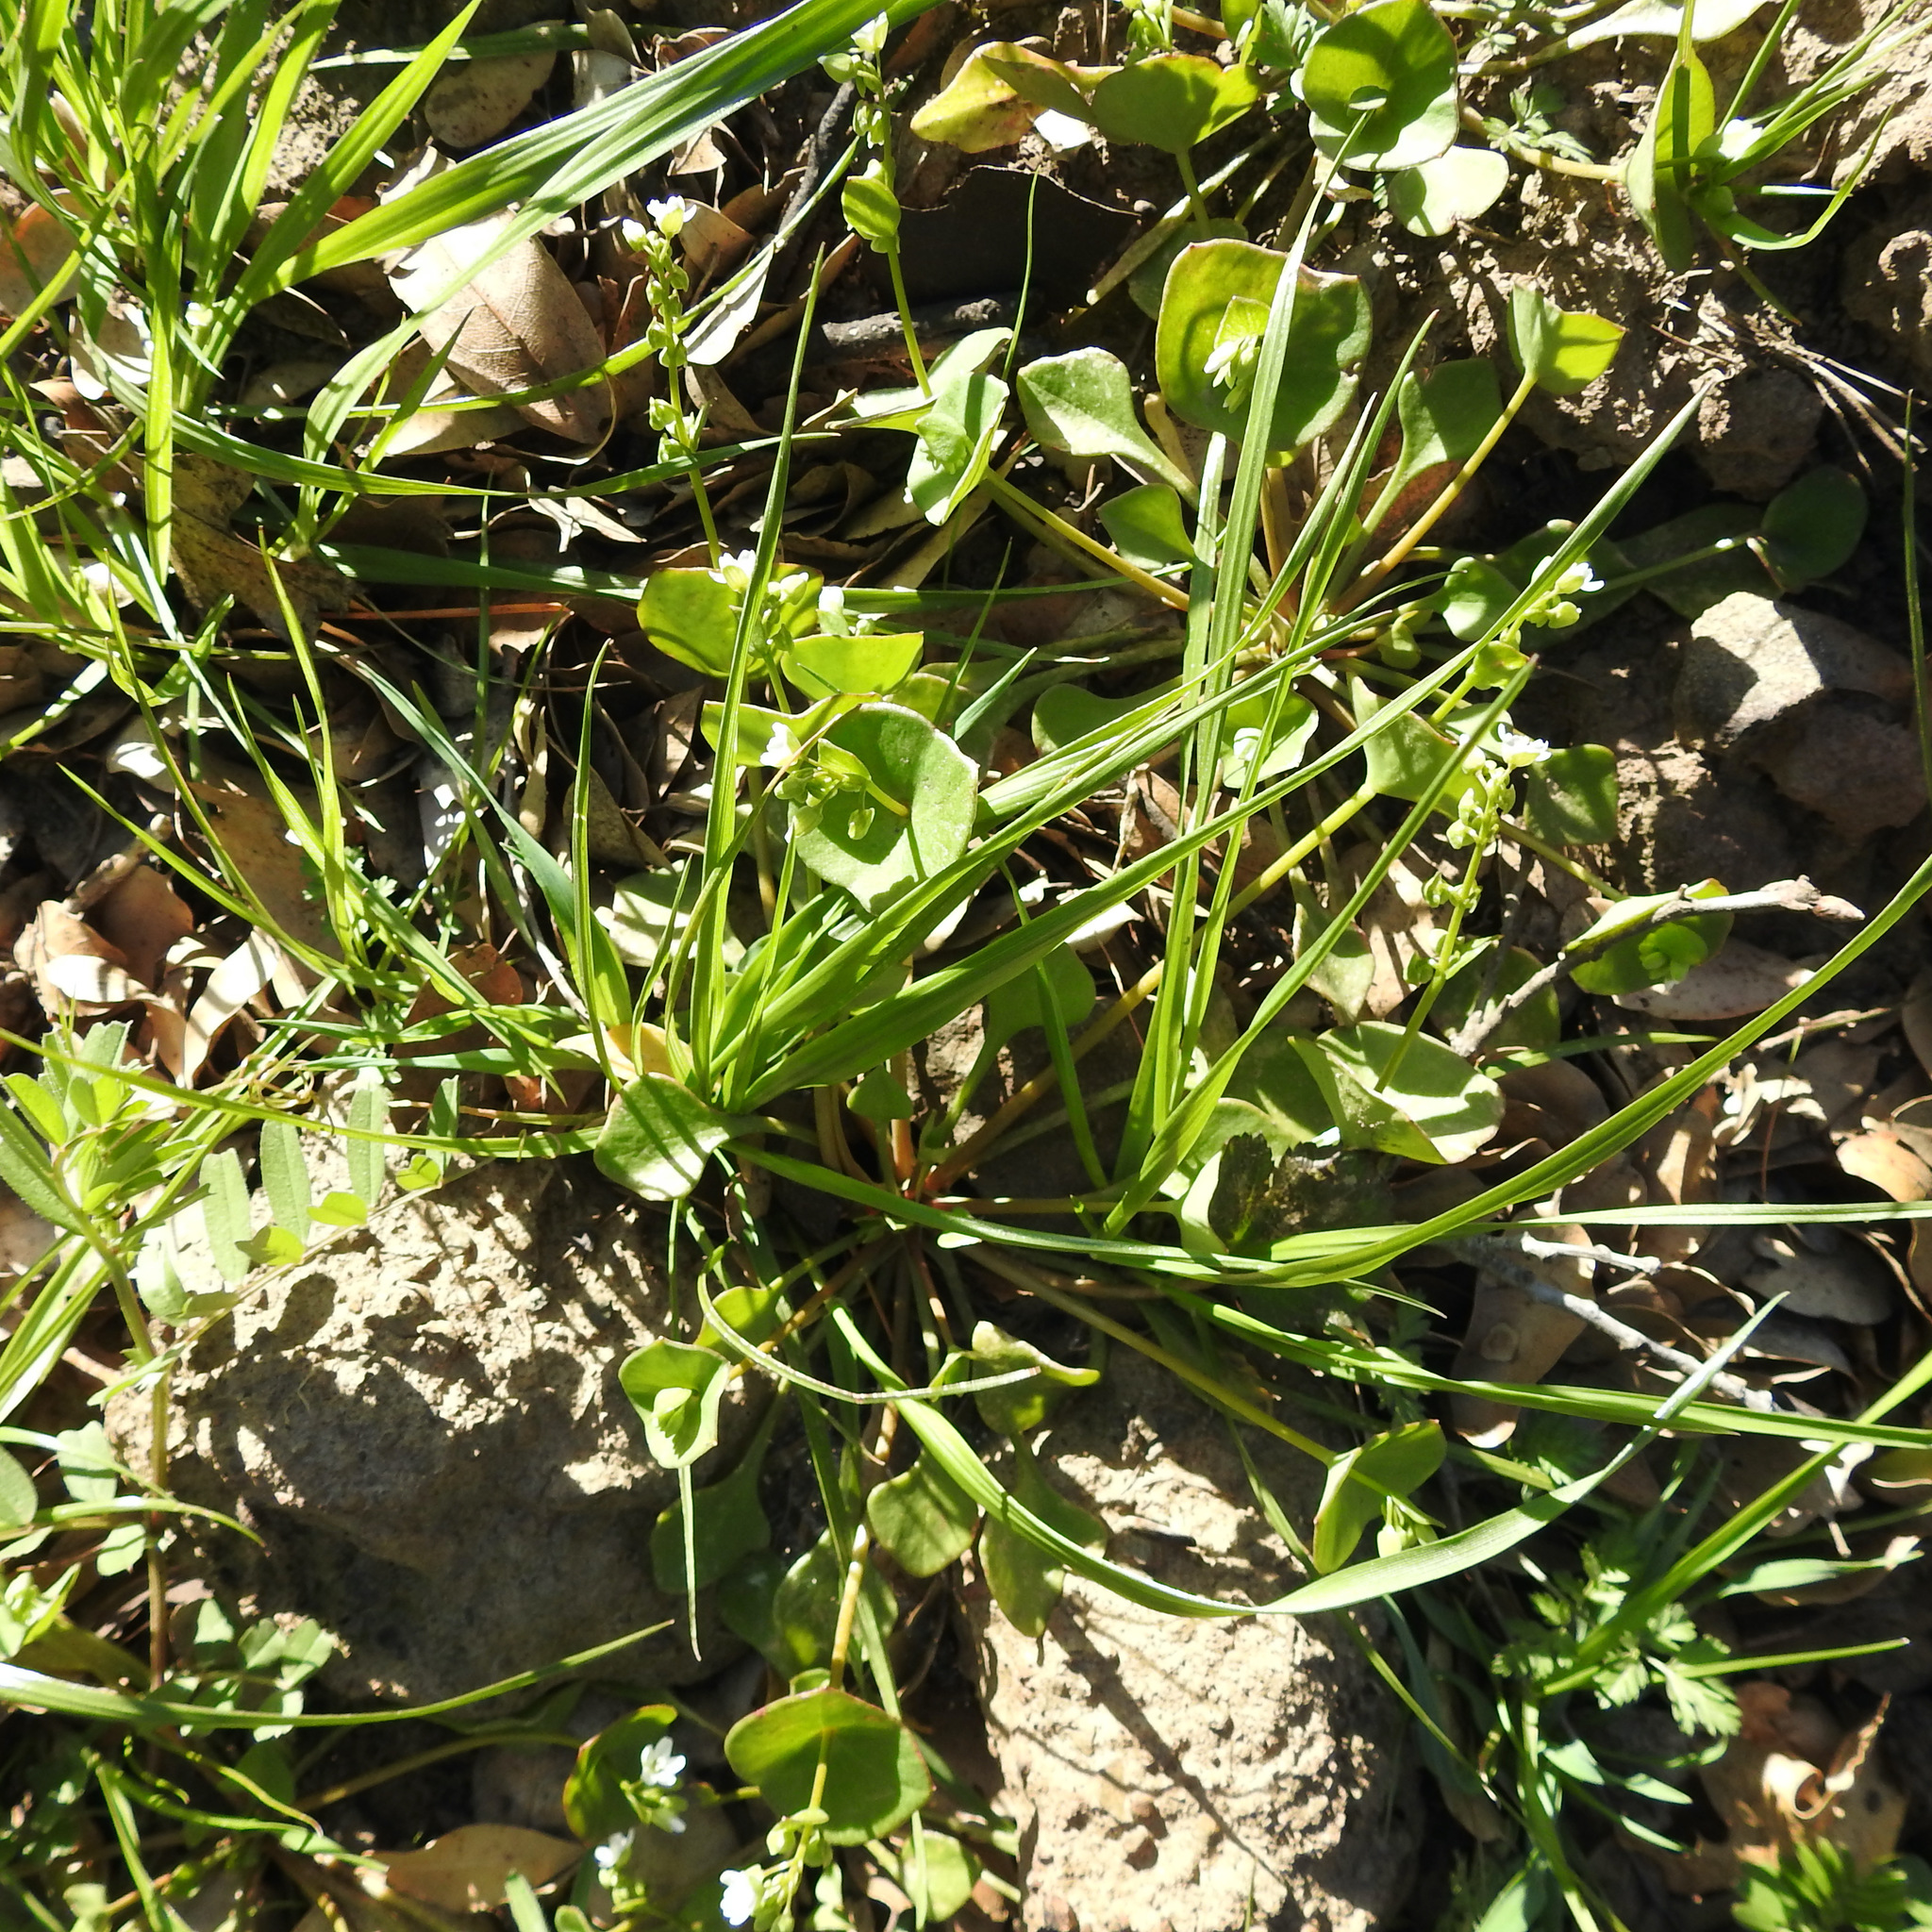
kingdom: Plantae
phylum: Tracheophyta
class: Magnoliopsida
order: Caryophyllales
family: Montiaceae
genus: Claytonia
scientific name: Claytonia perfoliata
